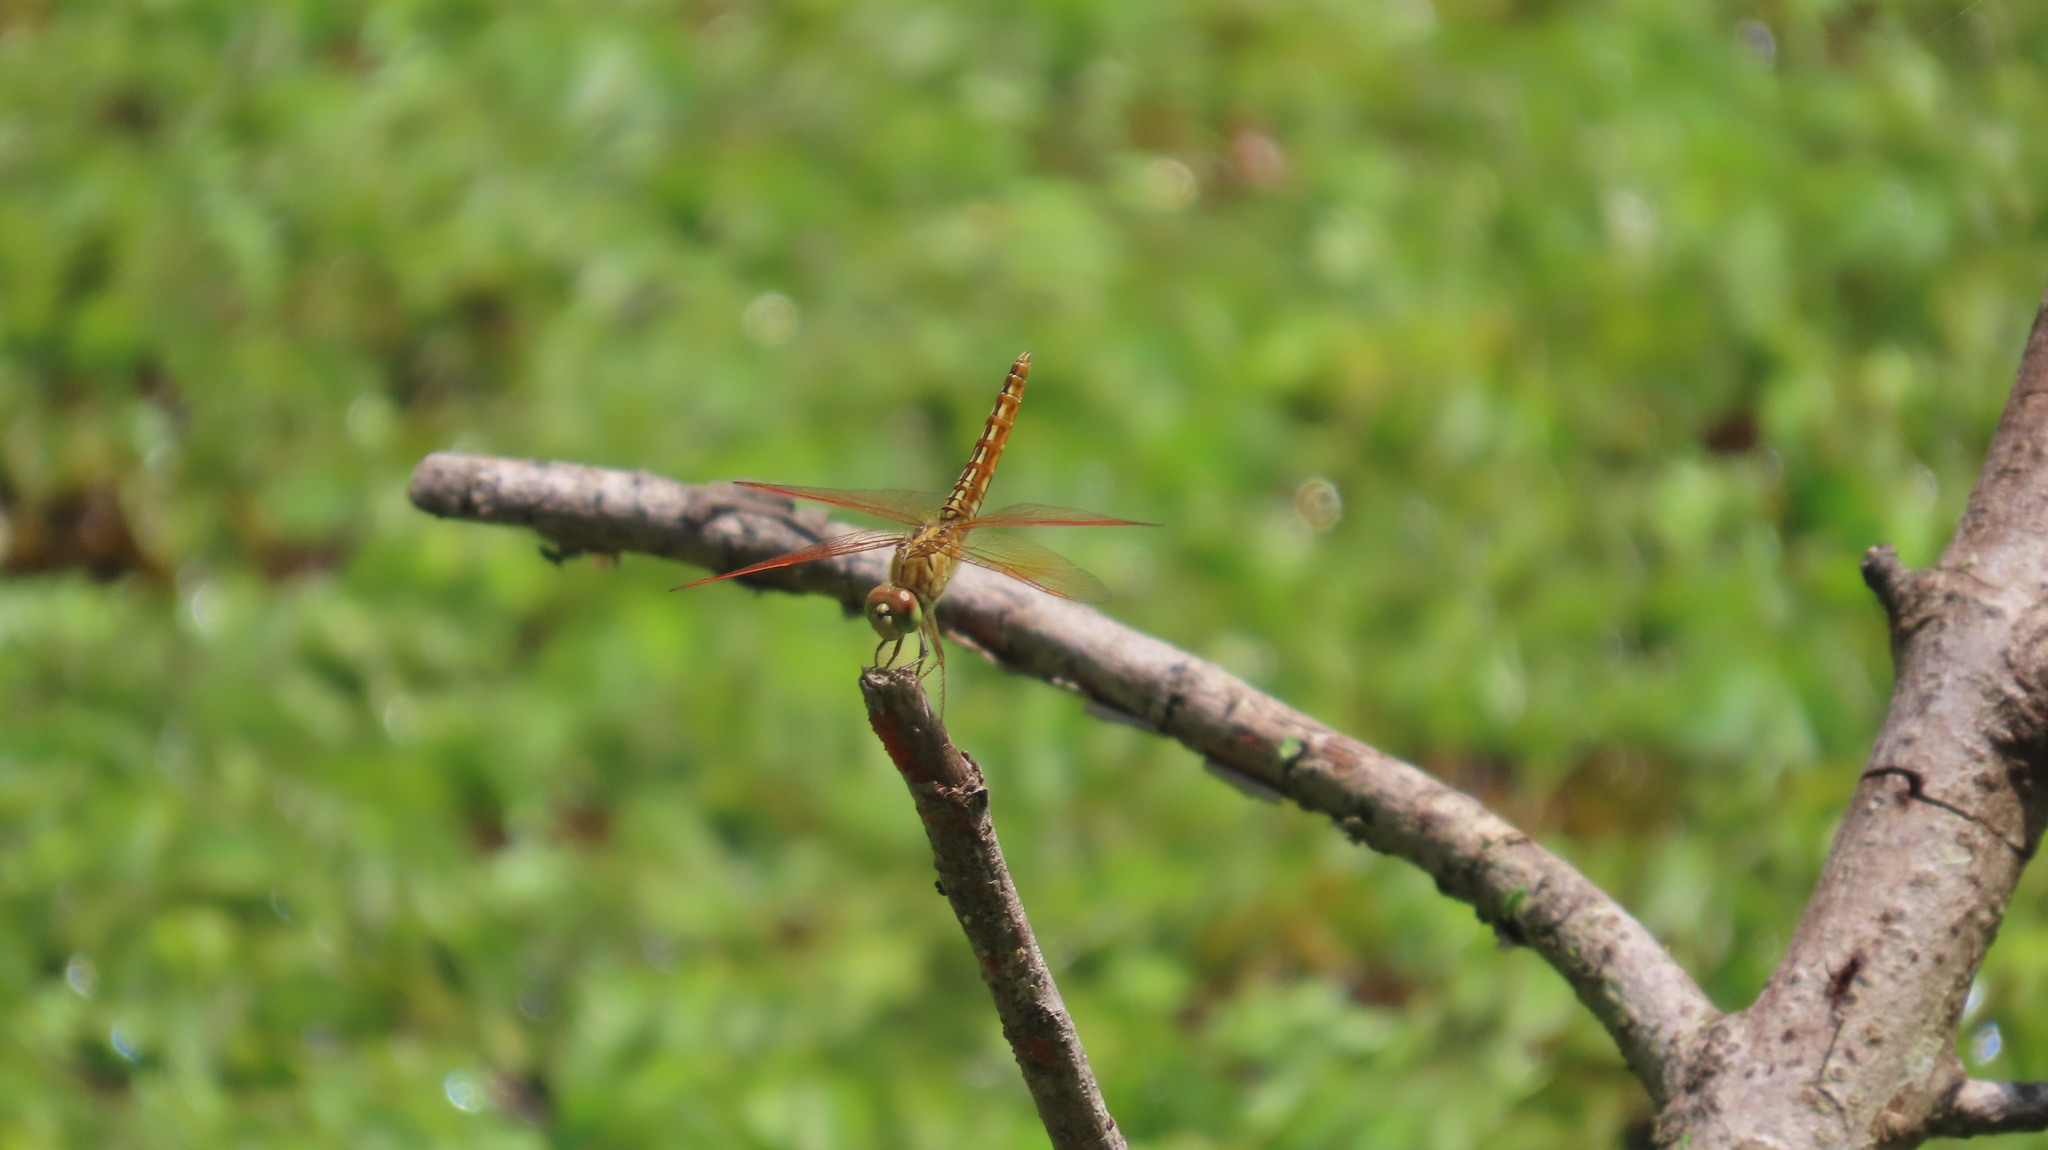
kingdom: Animalia
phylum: Arthropoda
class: Insecta
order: Odonata
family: Libellulidae
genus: Brachythemis
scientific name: Brachythemis contaminata
